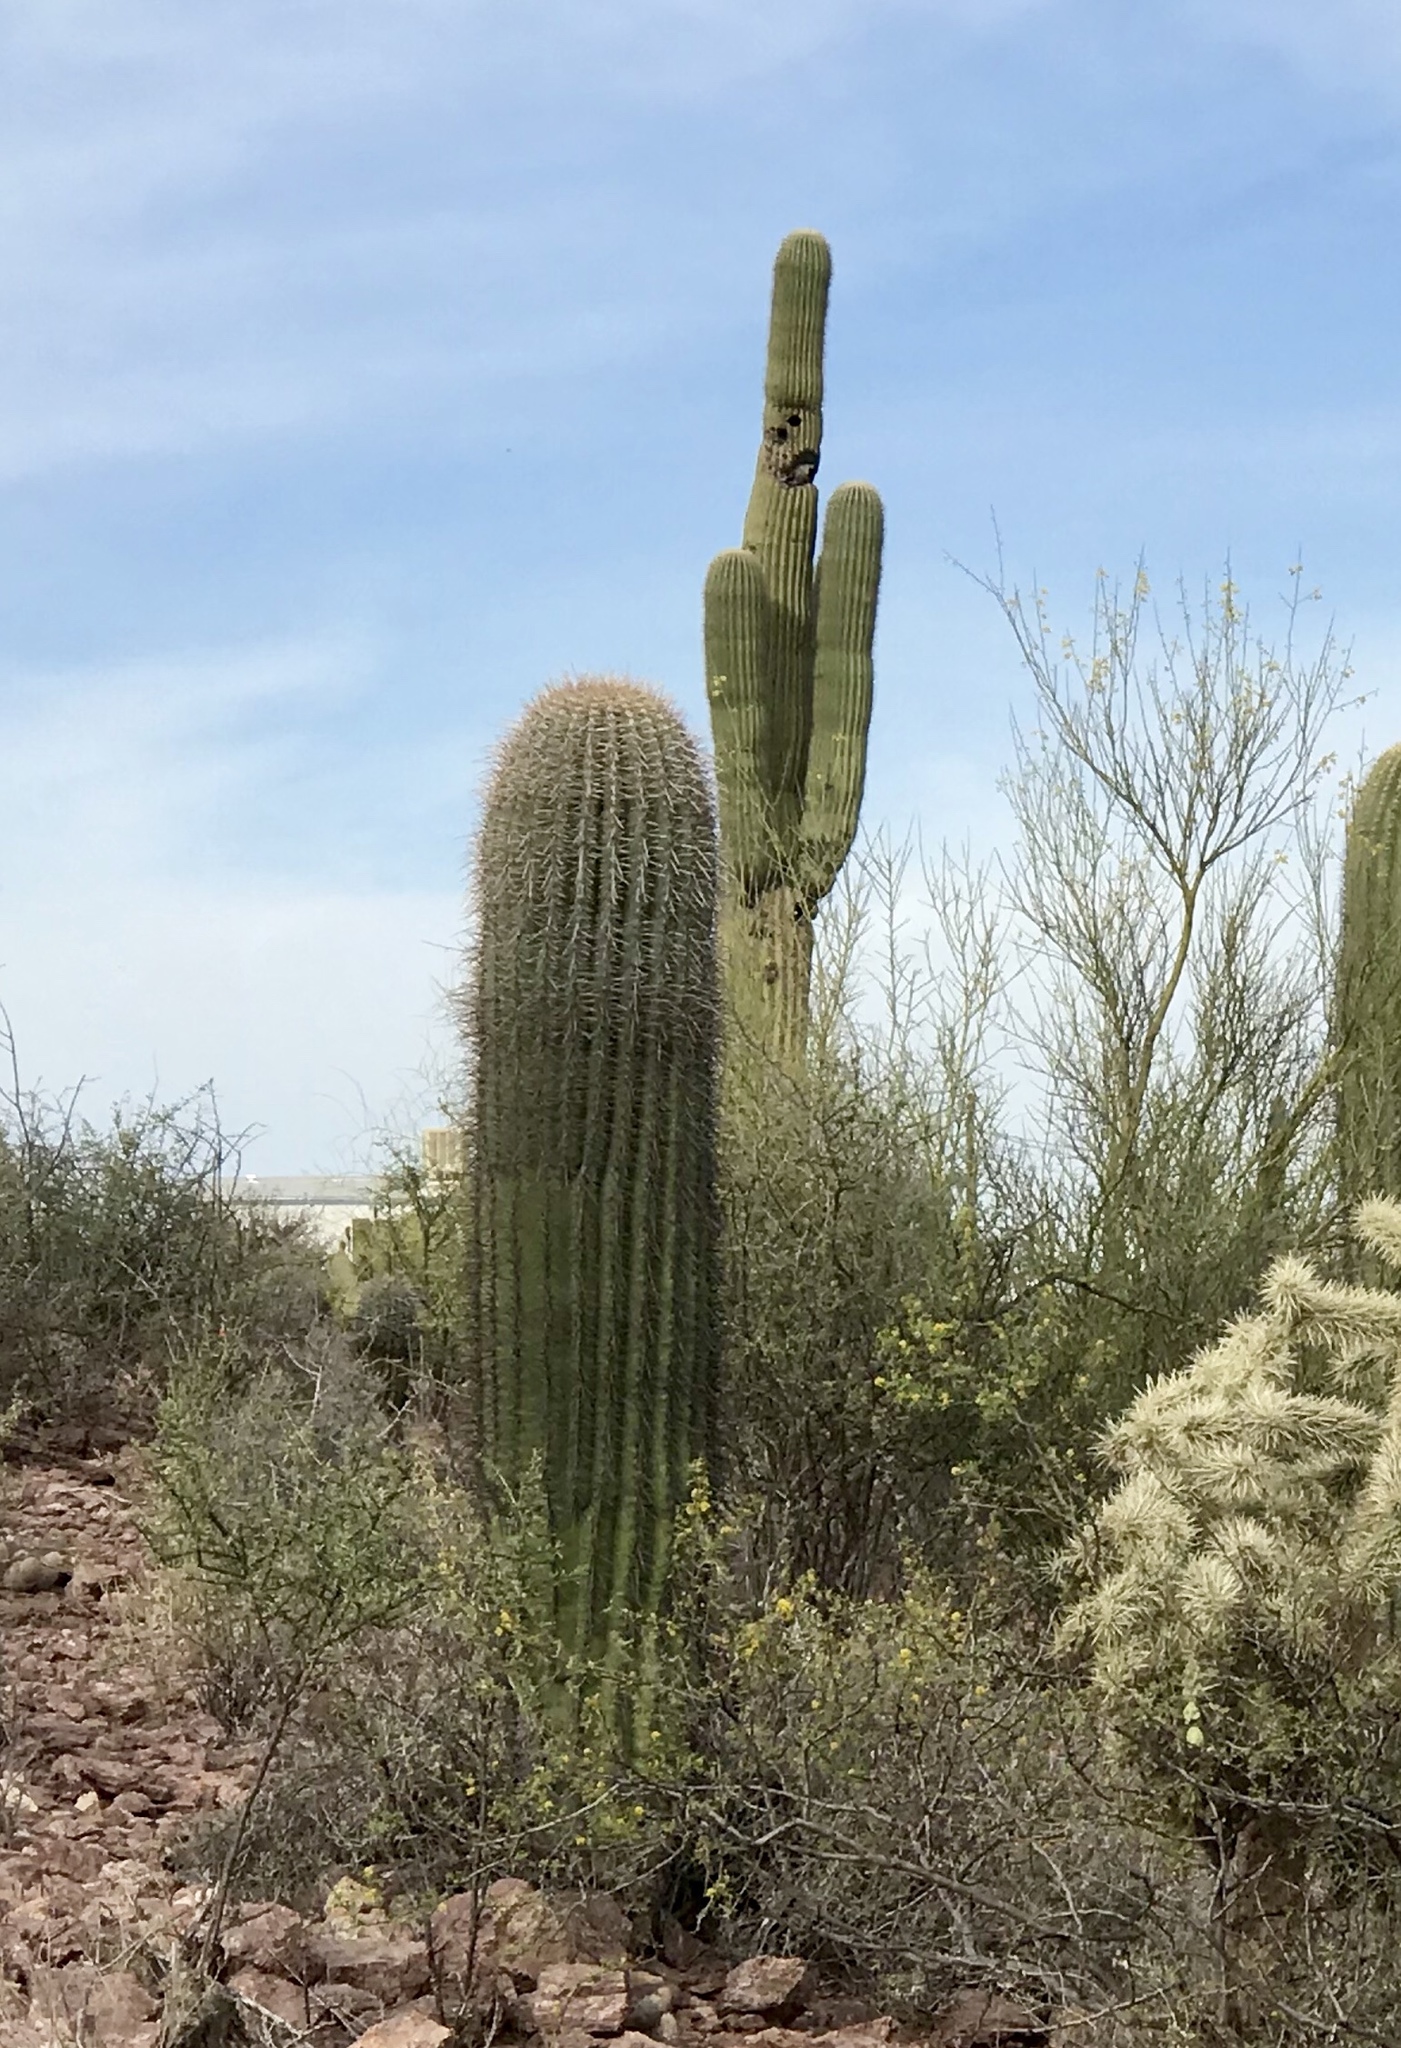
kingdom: Plantae
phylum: Tracheophyta
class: Magnoliopsida
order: Caryophyllales
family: Cactaceae
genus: Carnegiea
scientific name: Carnegiea gigantea
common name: Saguaro
